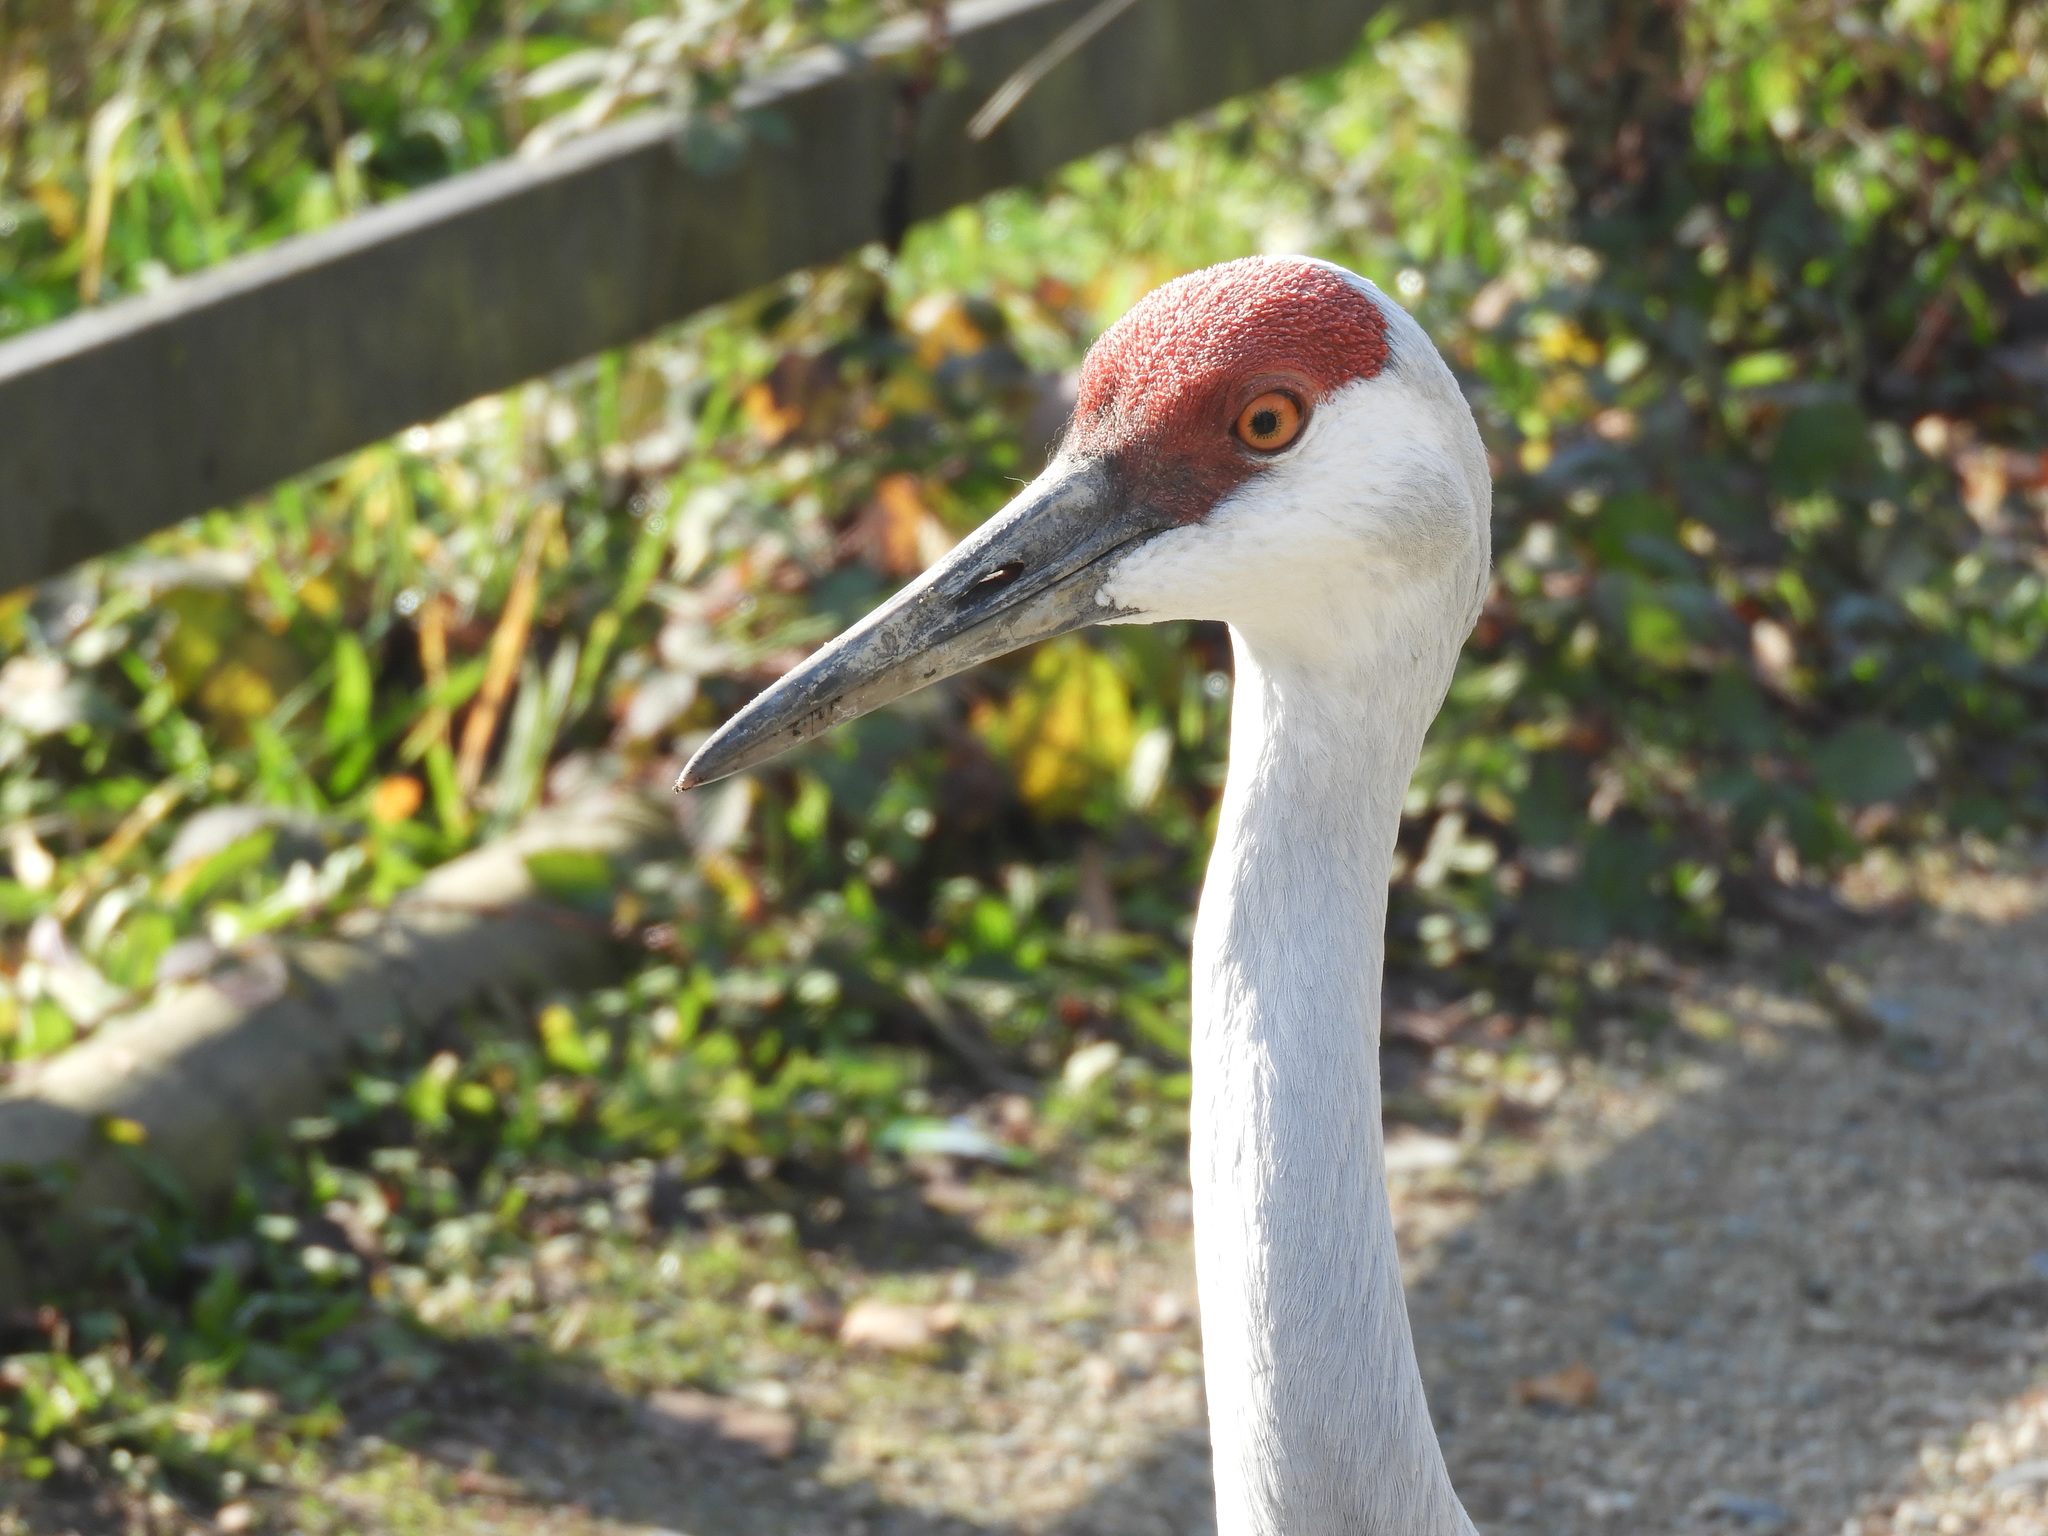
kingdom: Animalia
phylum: Chordata
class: Aves
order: Gruiformes
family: Gruidae
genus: Grus
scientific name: Grus canadensis
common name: Sandhill crane
